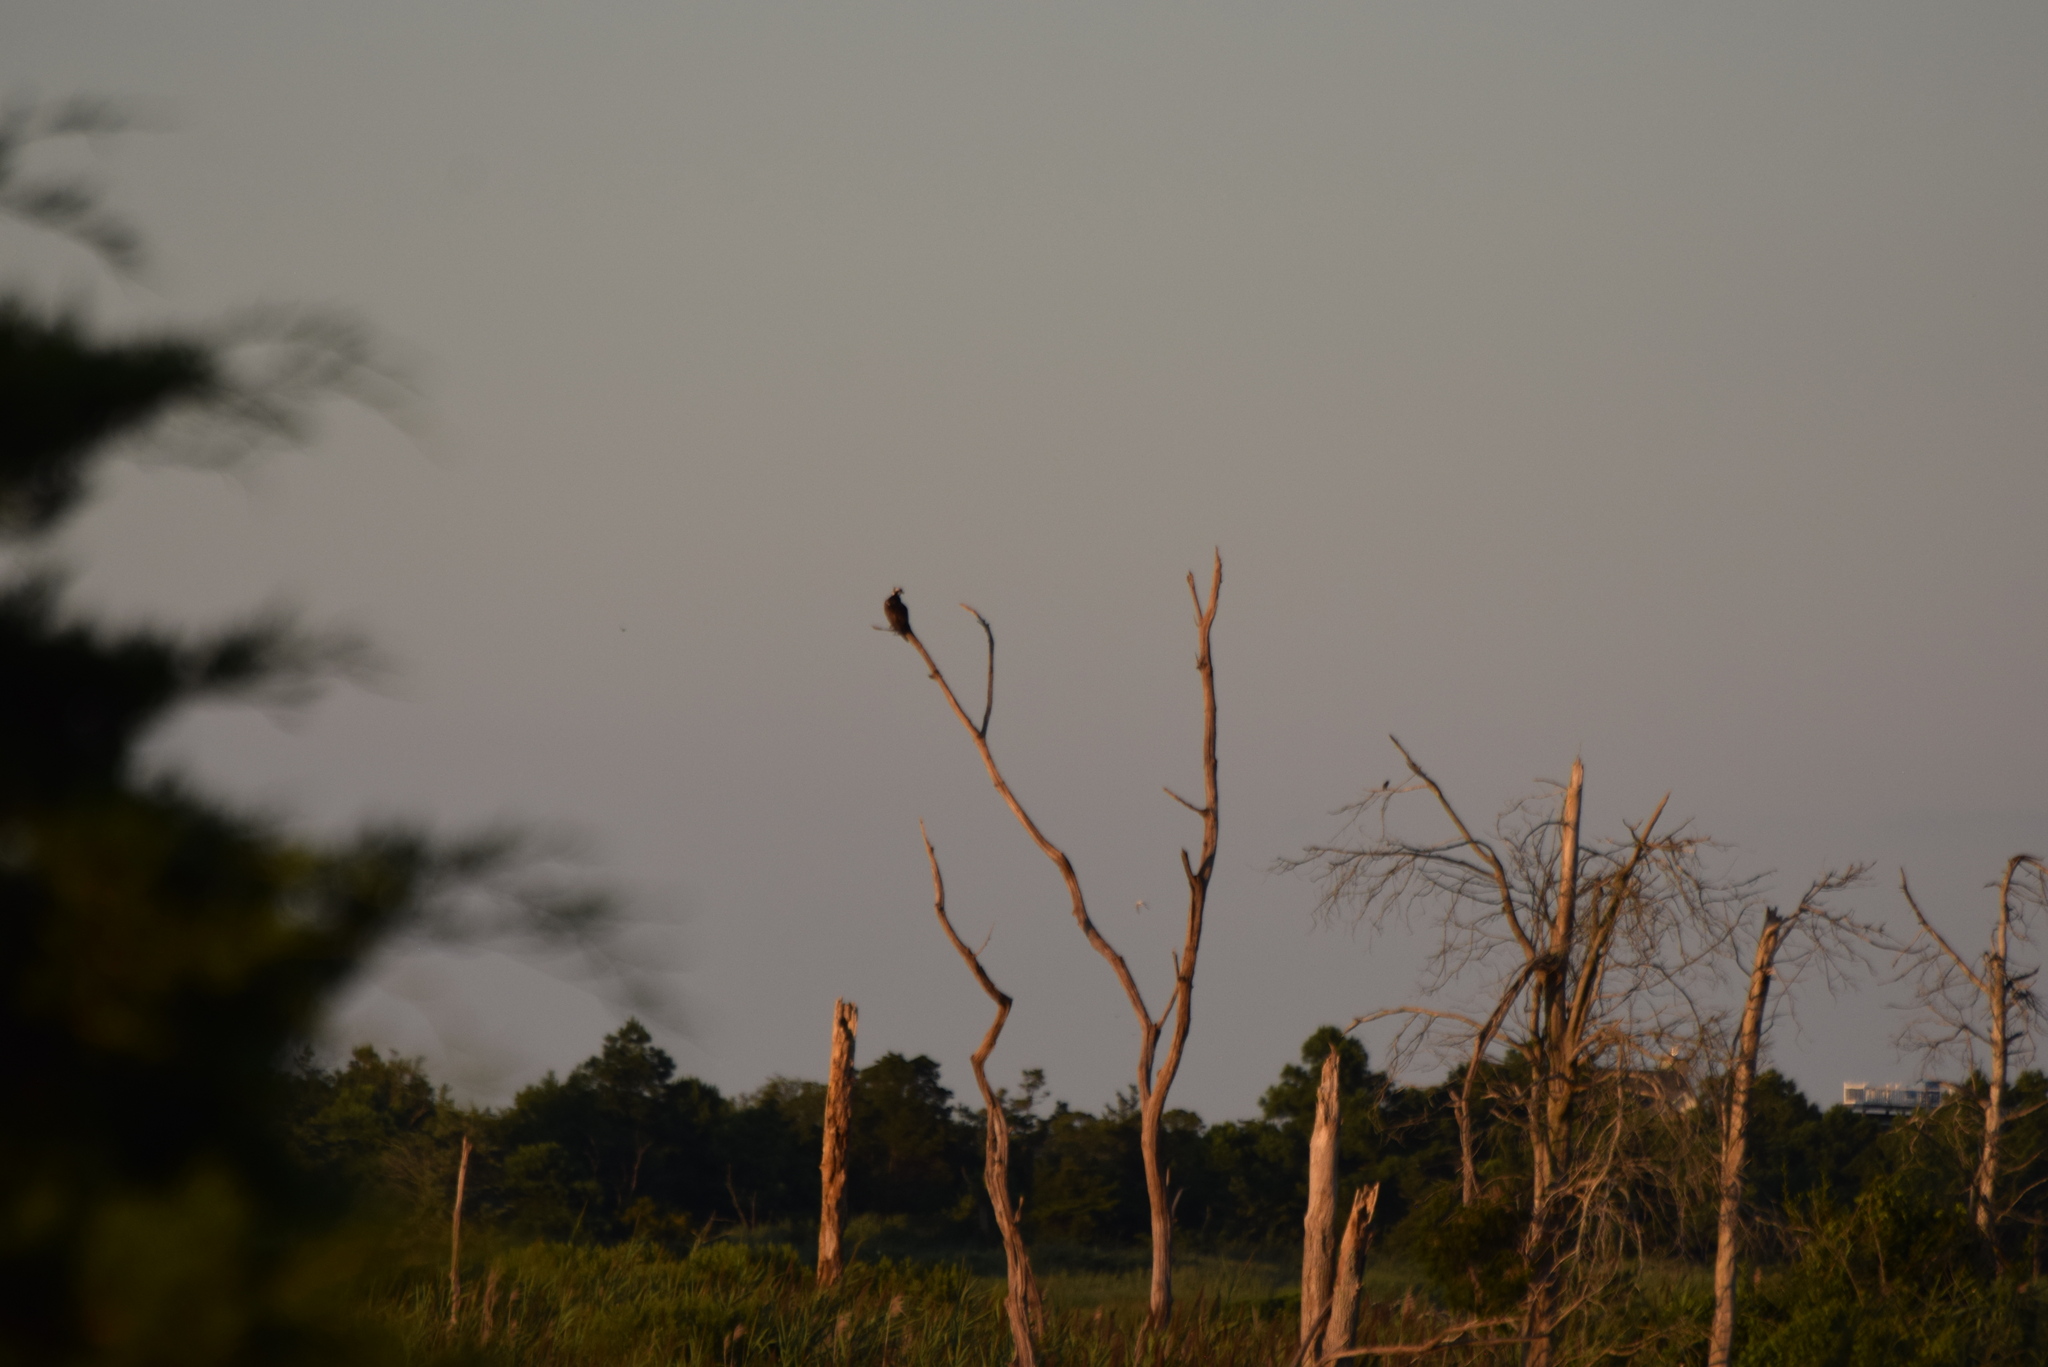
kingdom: Animalia
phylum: Chordata
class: Aves
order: Accipitriformes
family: Pandionidae
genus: Pandion
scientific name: Pandion haliaetus
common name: Osprey
